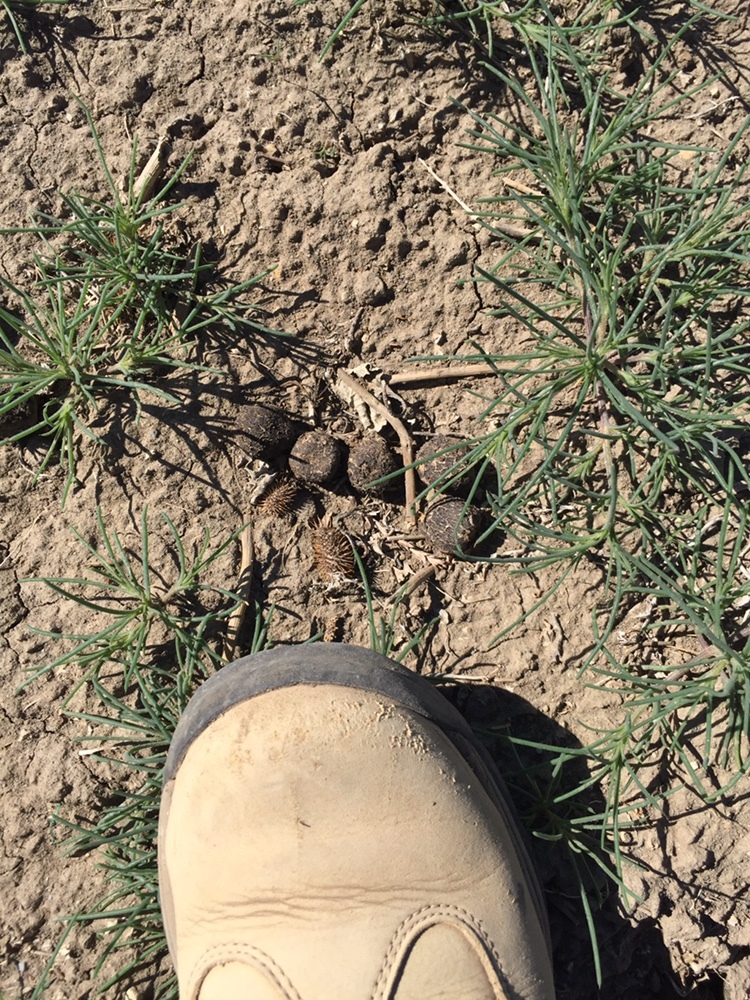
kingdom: Animalia
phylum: Chordata
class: Mammalia
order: Artiodactyla
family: Cervidae
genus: Odocoileus
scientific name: Odocoileus hemionus
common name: Mule deer
